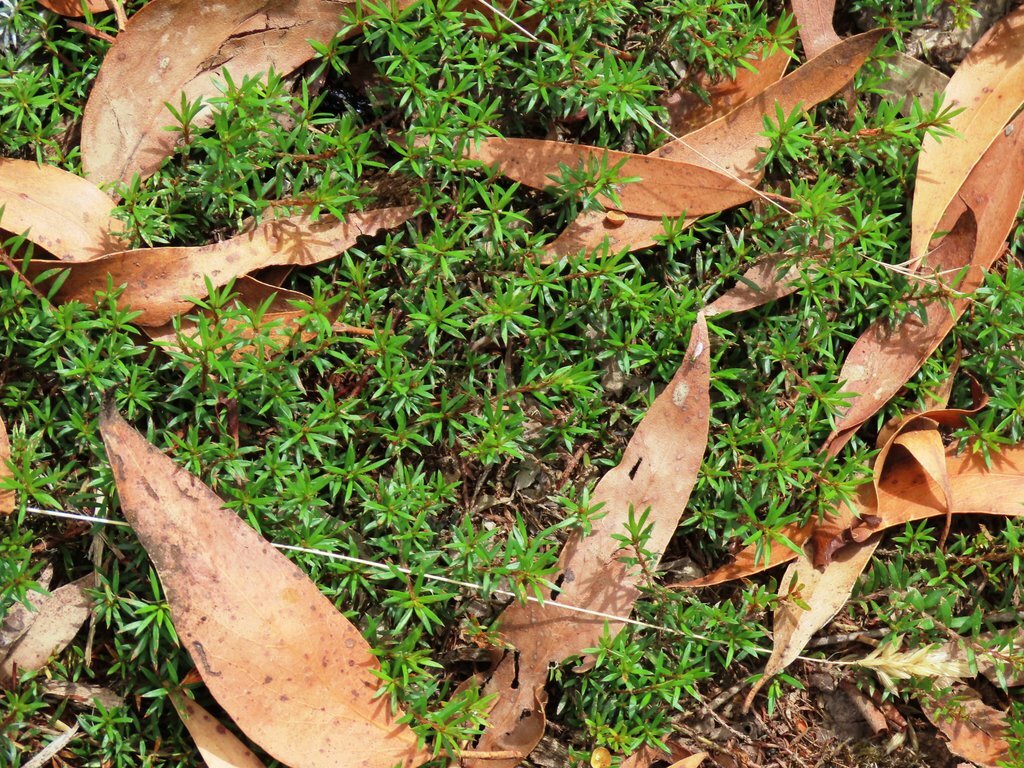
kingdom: Plantae
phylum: Tracheophyta
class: Magnoliopsida
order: Fabales
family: Fabaceae
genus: Pultenaea
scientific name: Pultenaea pedunculata
